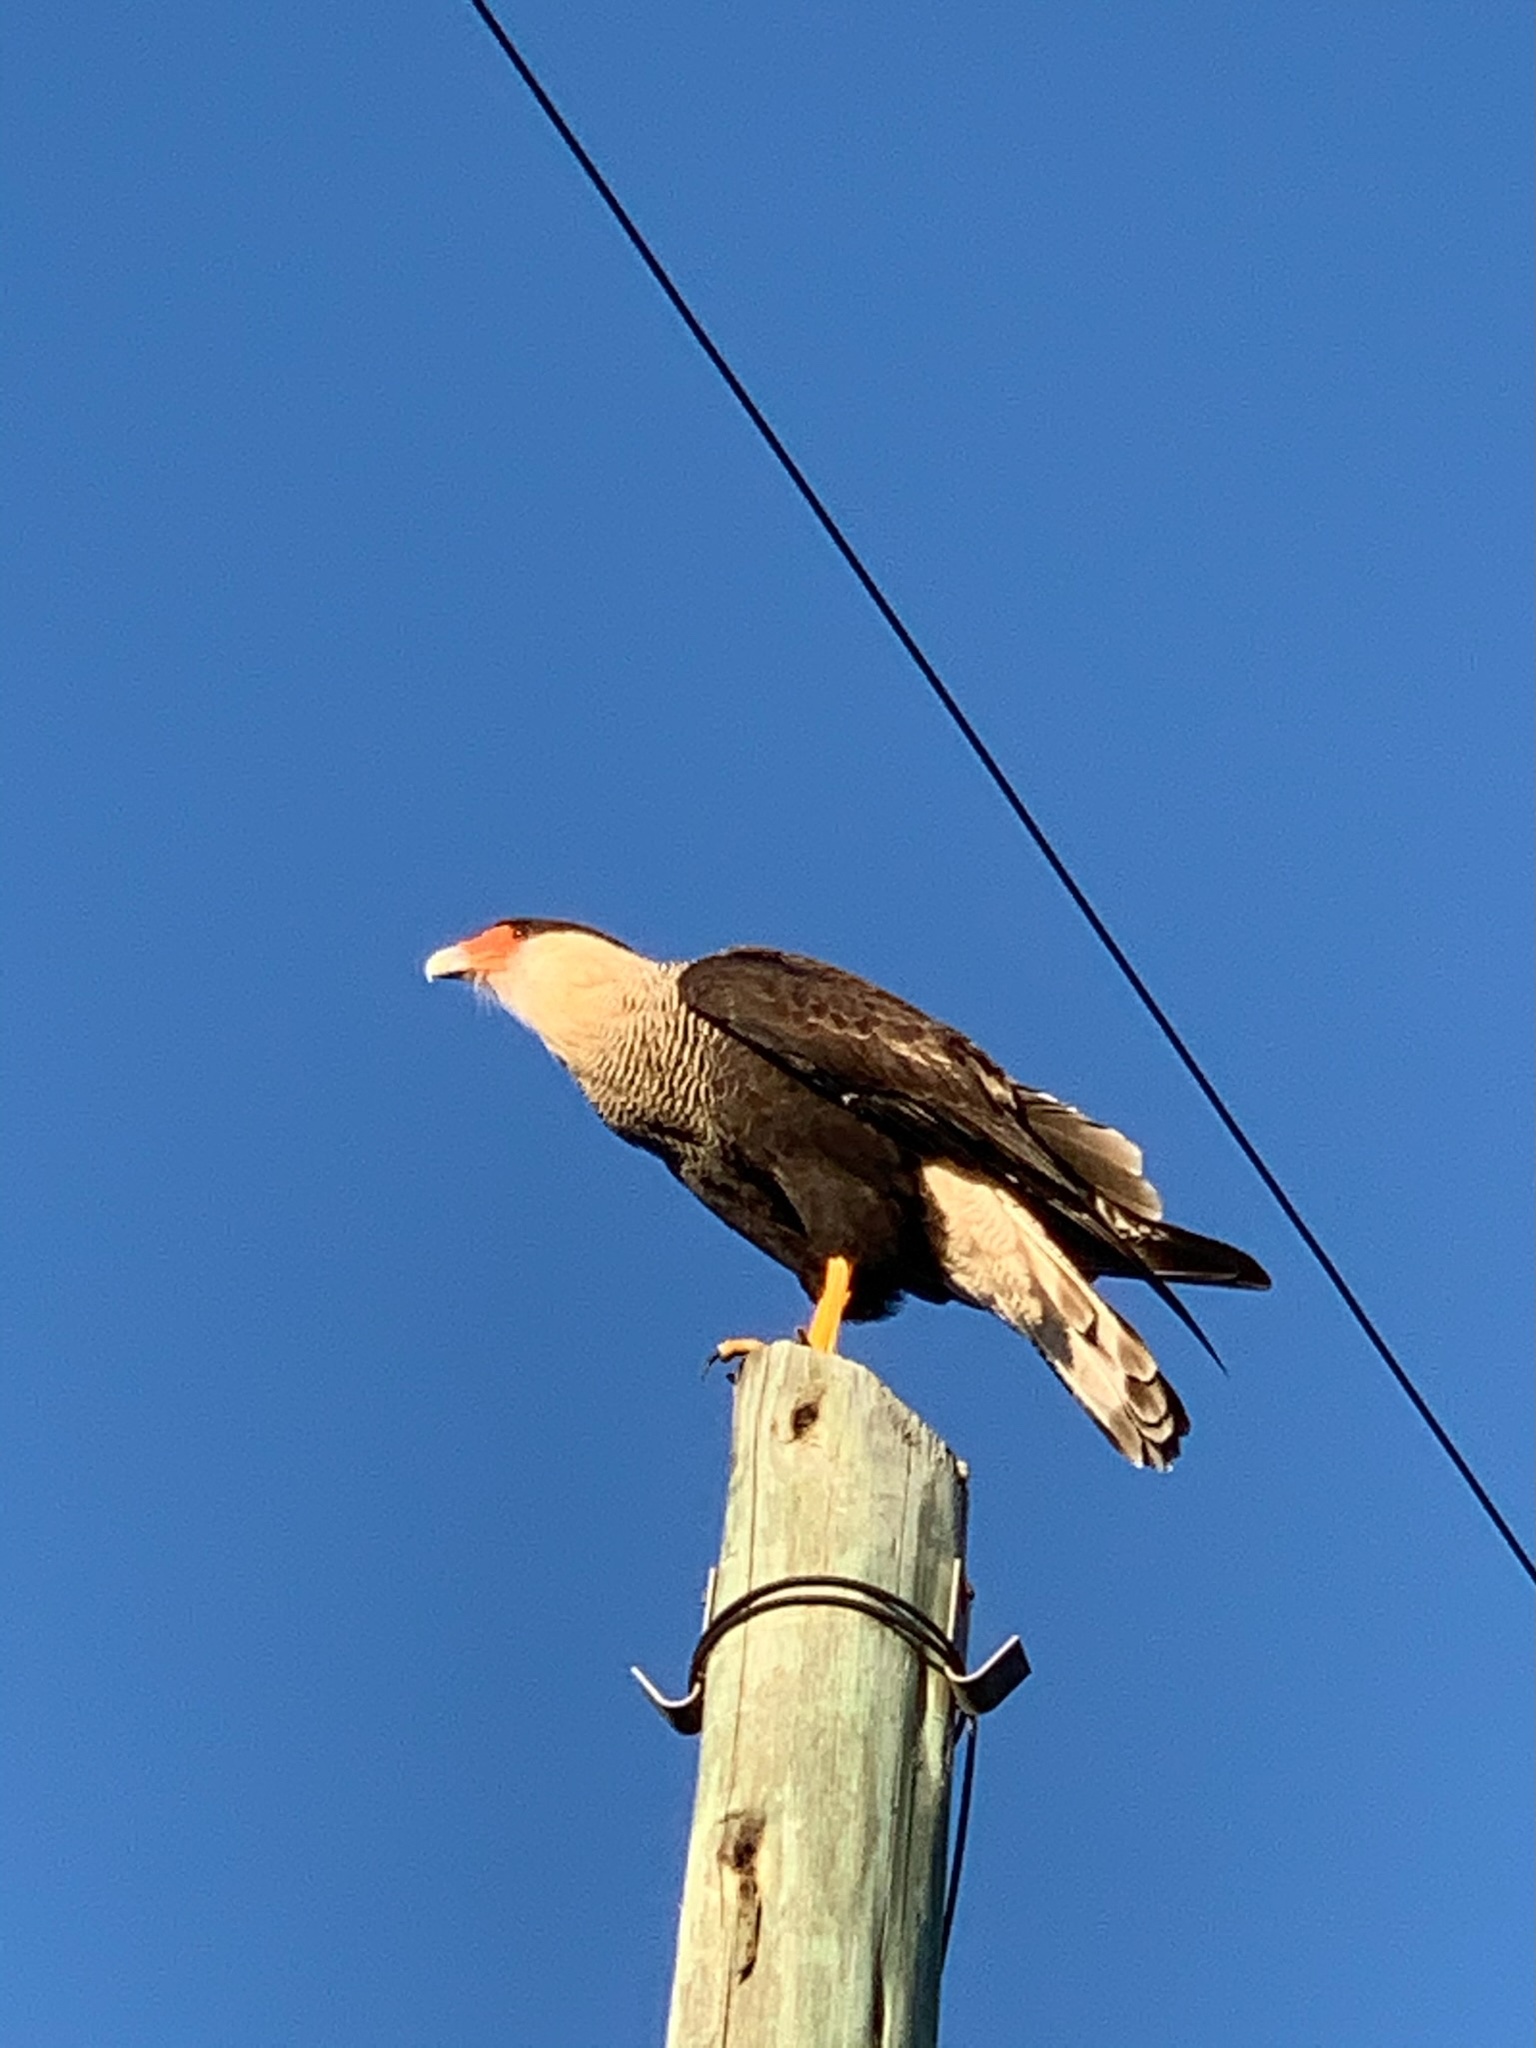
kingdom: Animalia
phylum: Chordata
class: Aves
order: Falconiformes
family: Falconidae
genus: Caracara
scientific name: Caracara plancus
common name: Southern caracara
